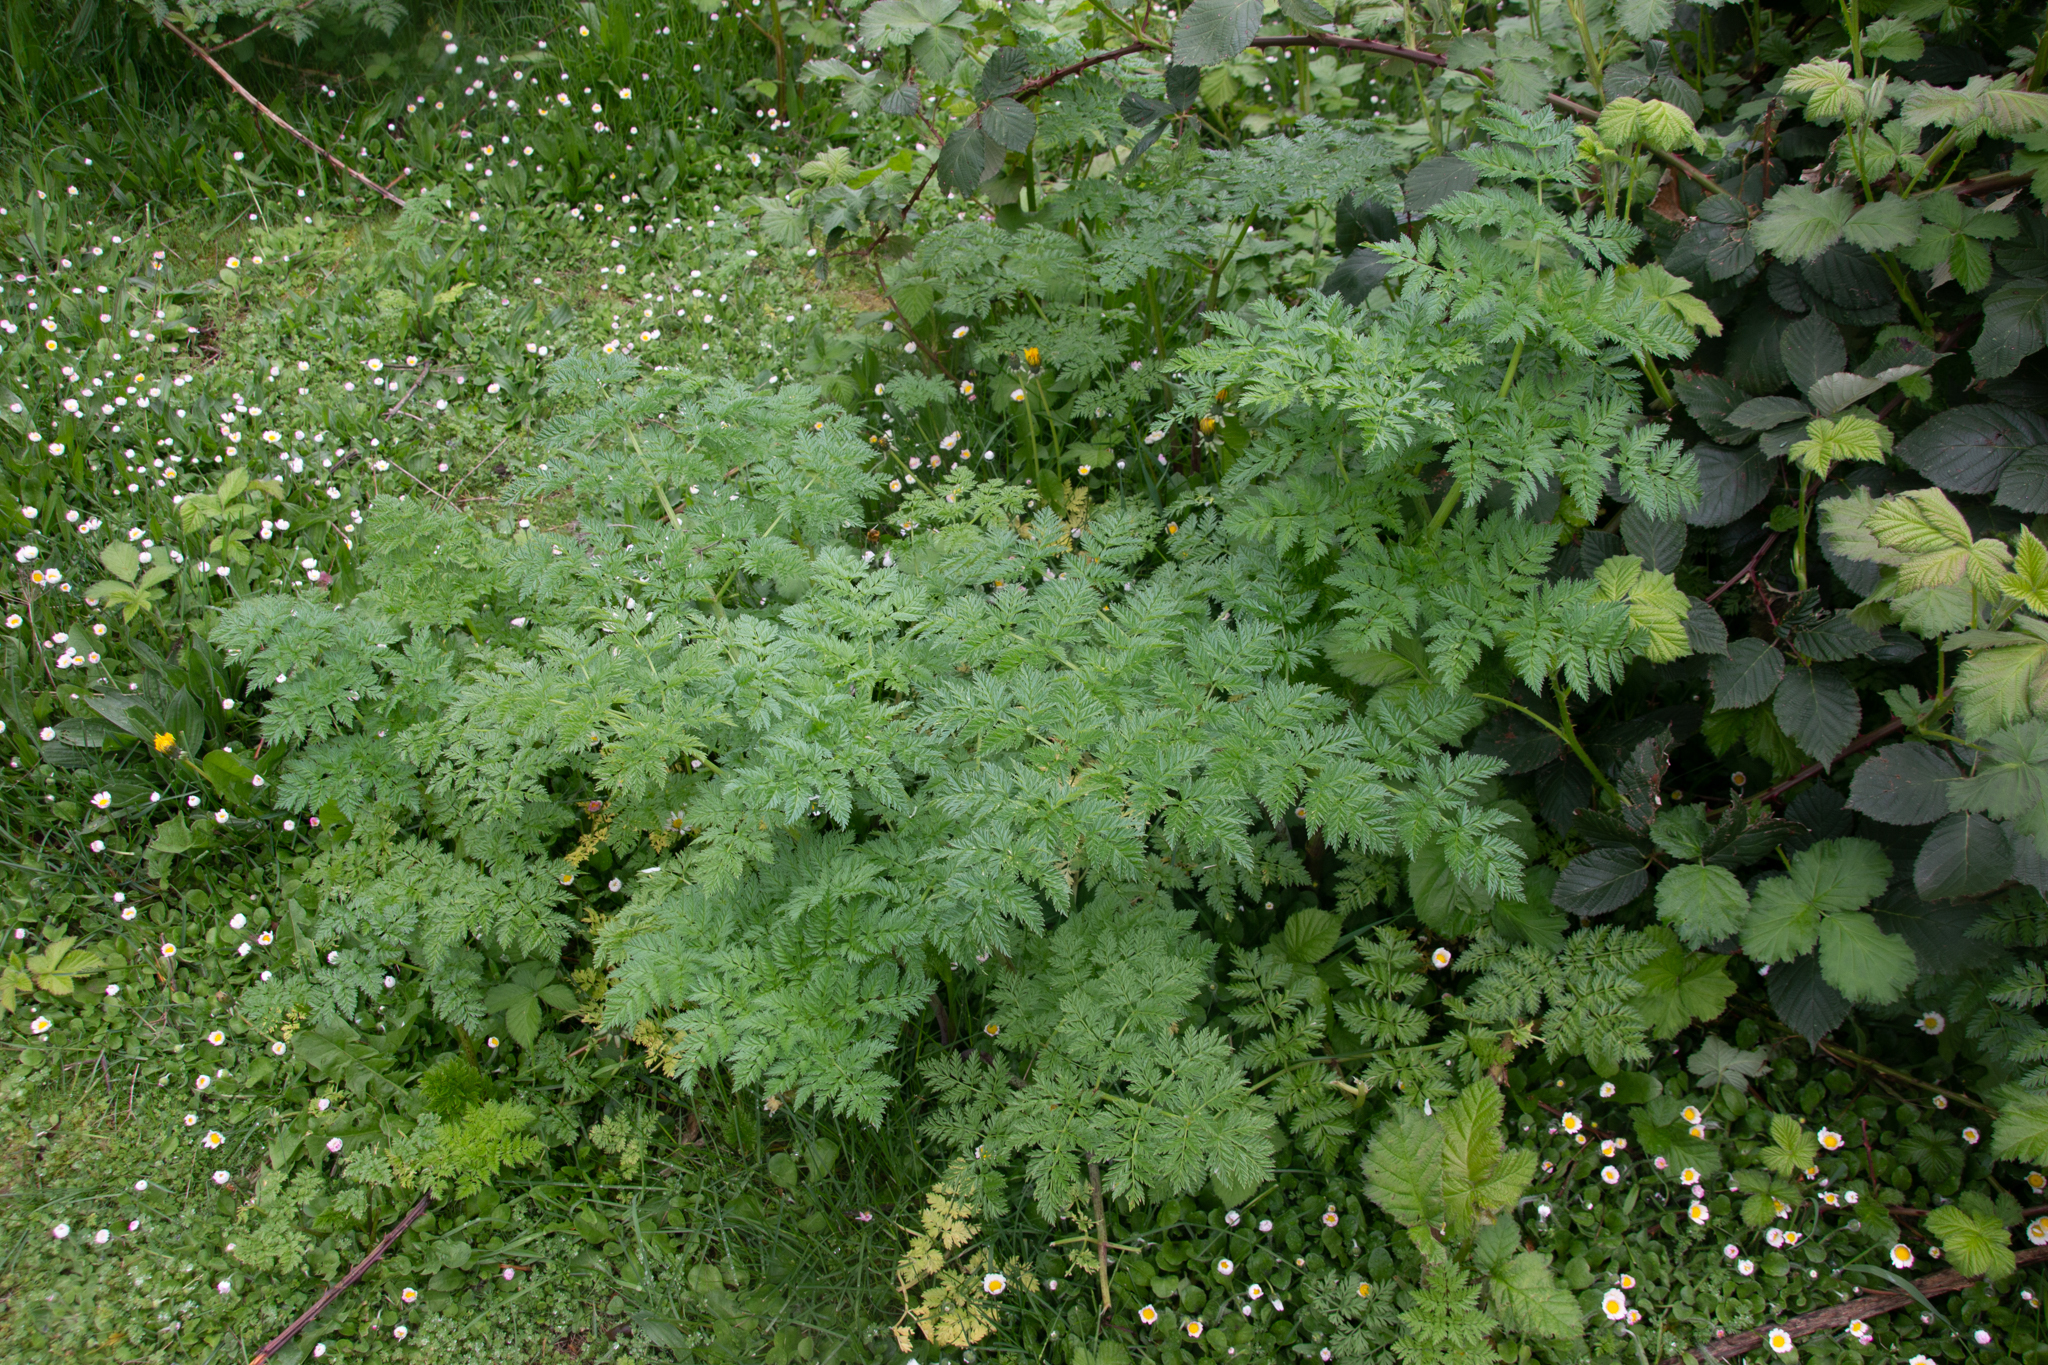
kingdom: Plantae
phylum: Tracheophyta
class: Magnoliopsida
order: Apiales
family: Apiaceae
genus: Conium
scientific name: Conium maculatum
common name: Hemlock
